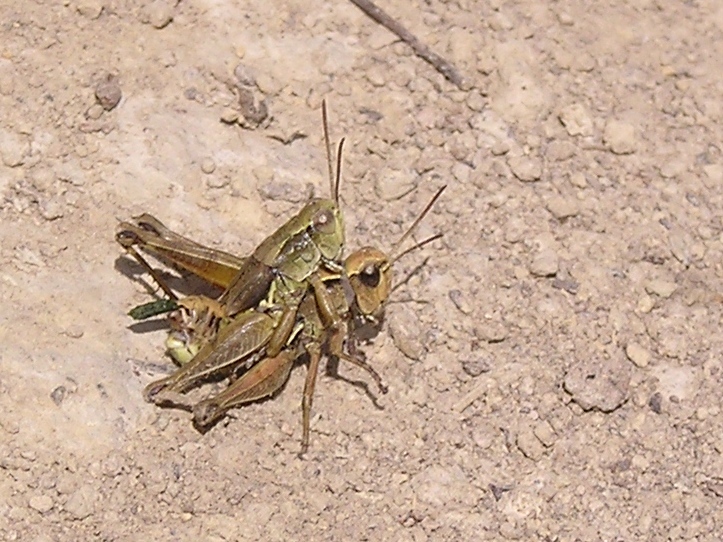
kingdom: Animalia
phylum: Arthropoda
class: Insecta
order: Orthoptera
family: Acrididae
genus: Phaulacridium
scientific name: Phaulacridium marginale
